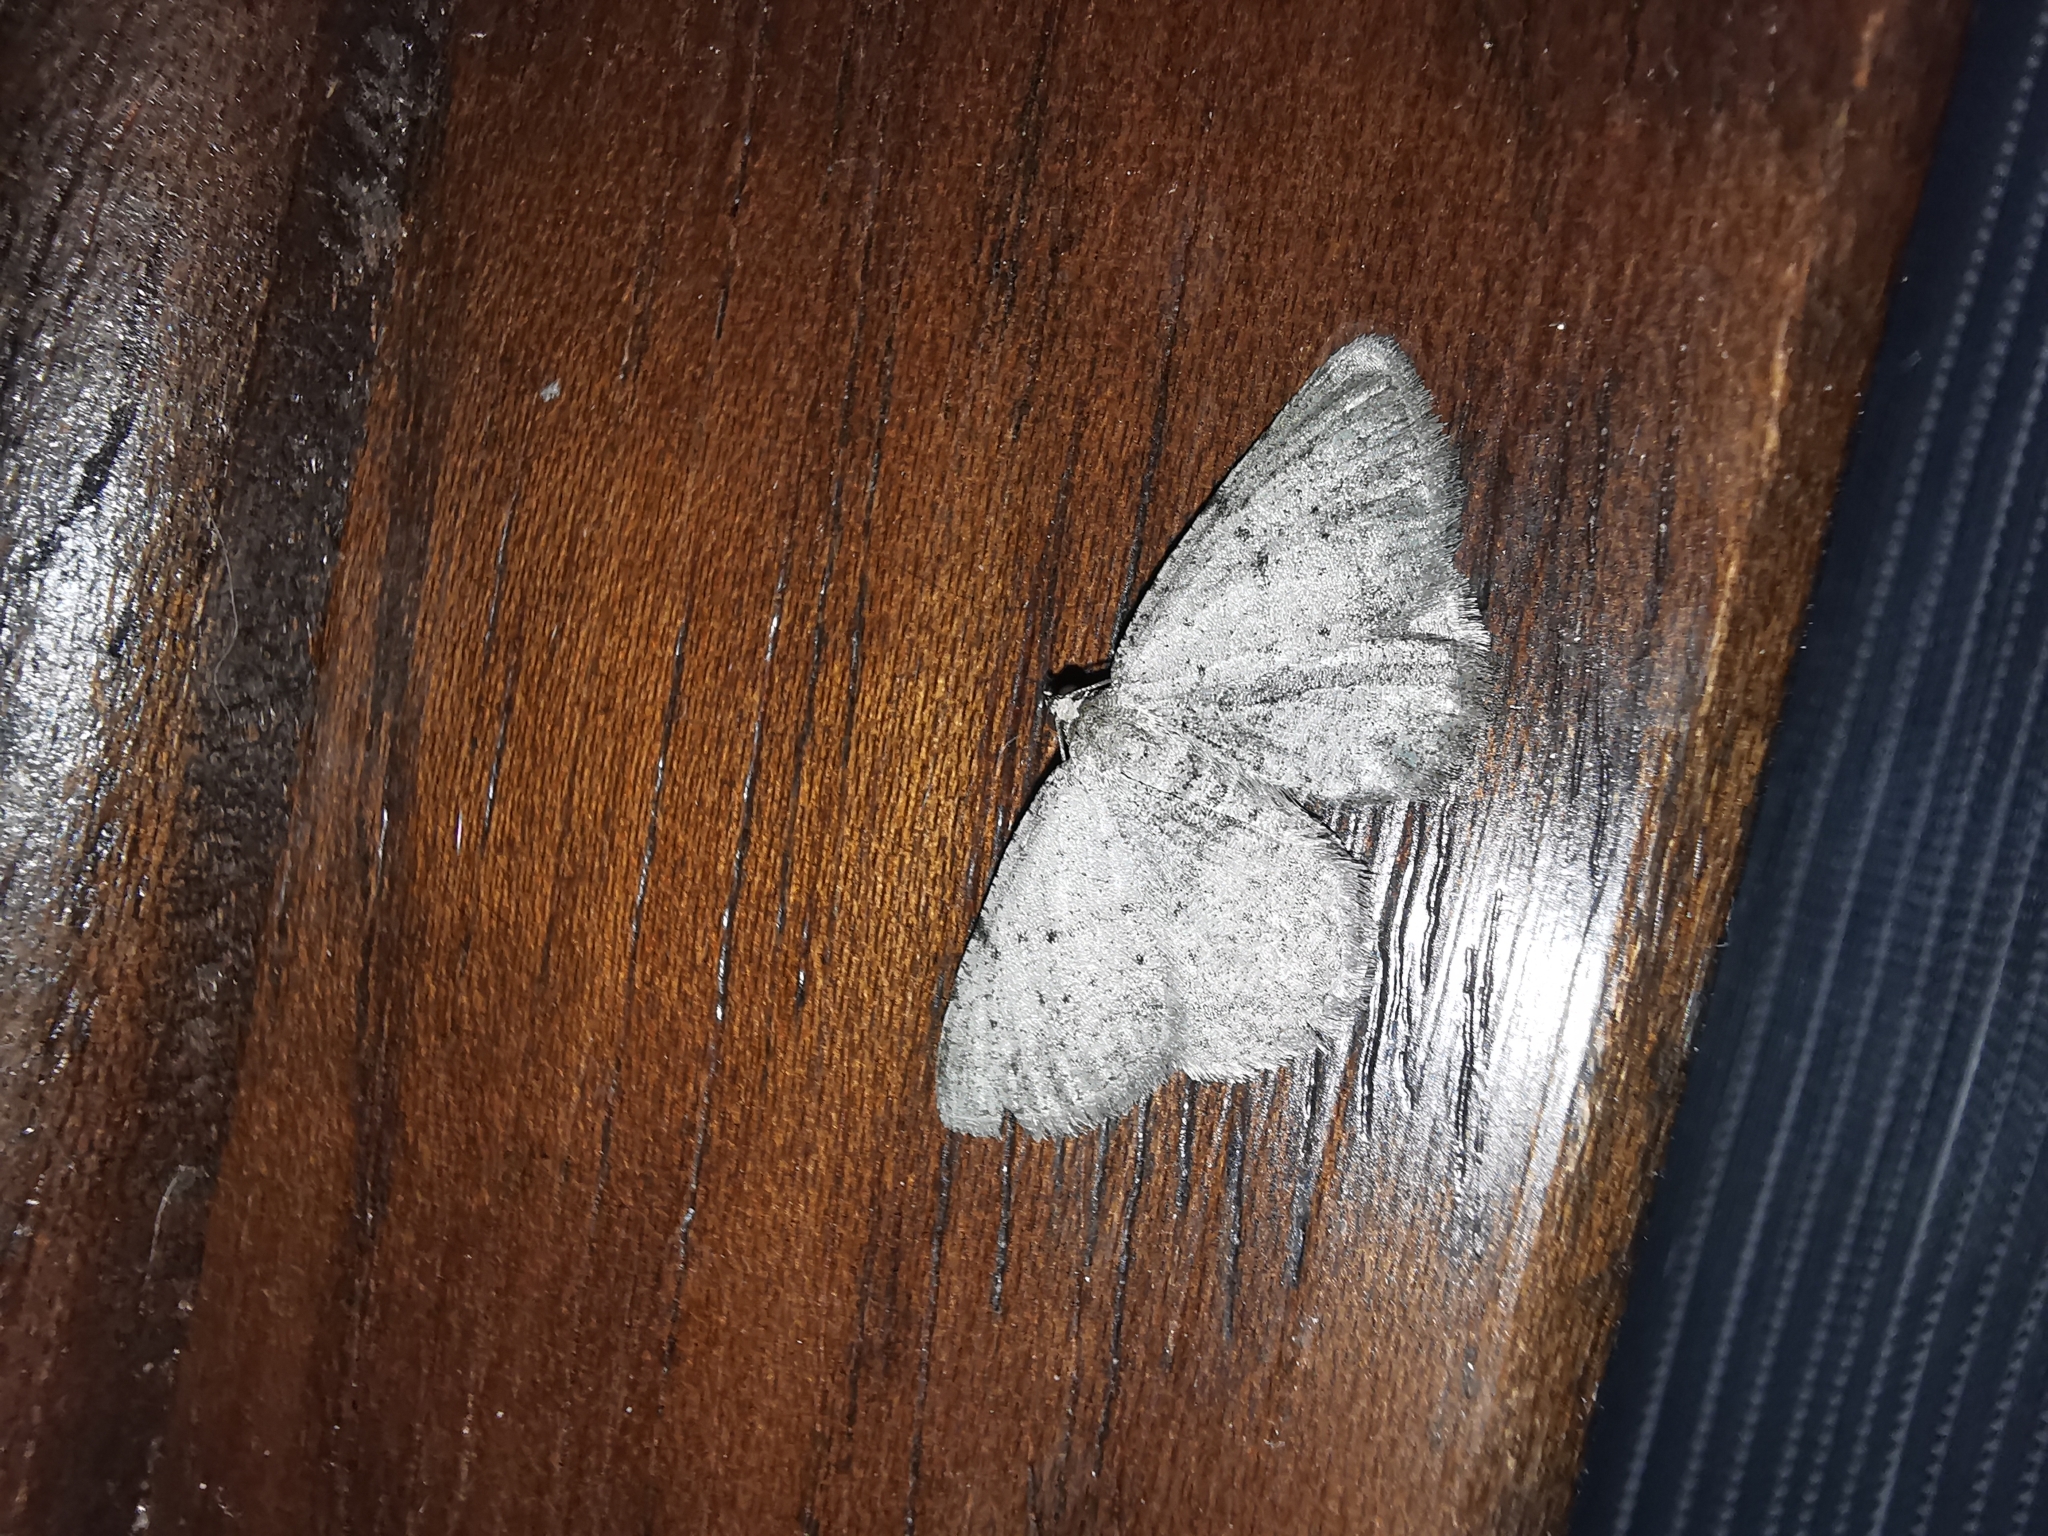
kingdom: Animalia
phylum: Arthropoda
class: Insecta
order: Lepidoptera
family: Geometridae
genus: Rhoptria
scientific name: Rhoptria dolosaria
